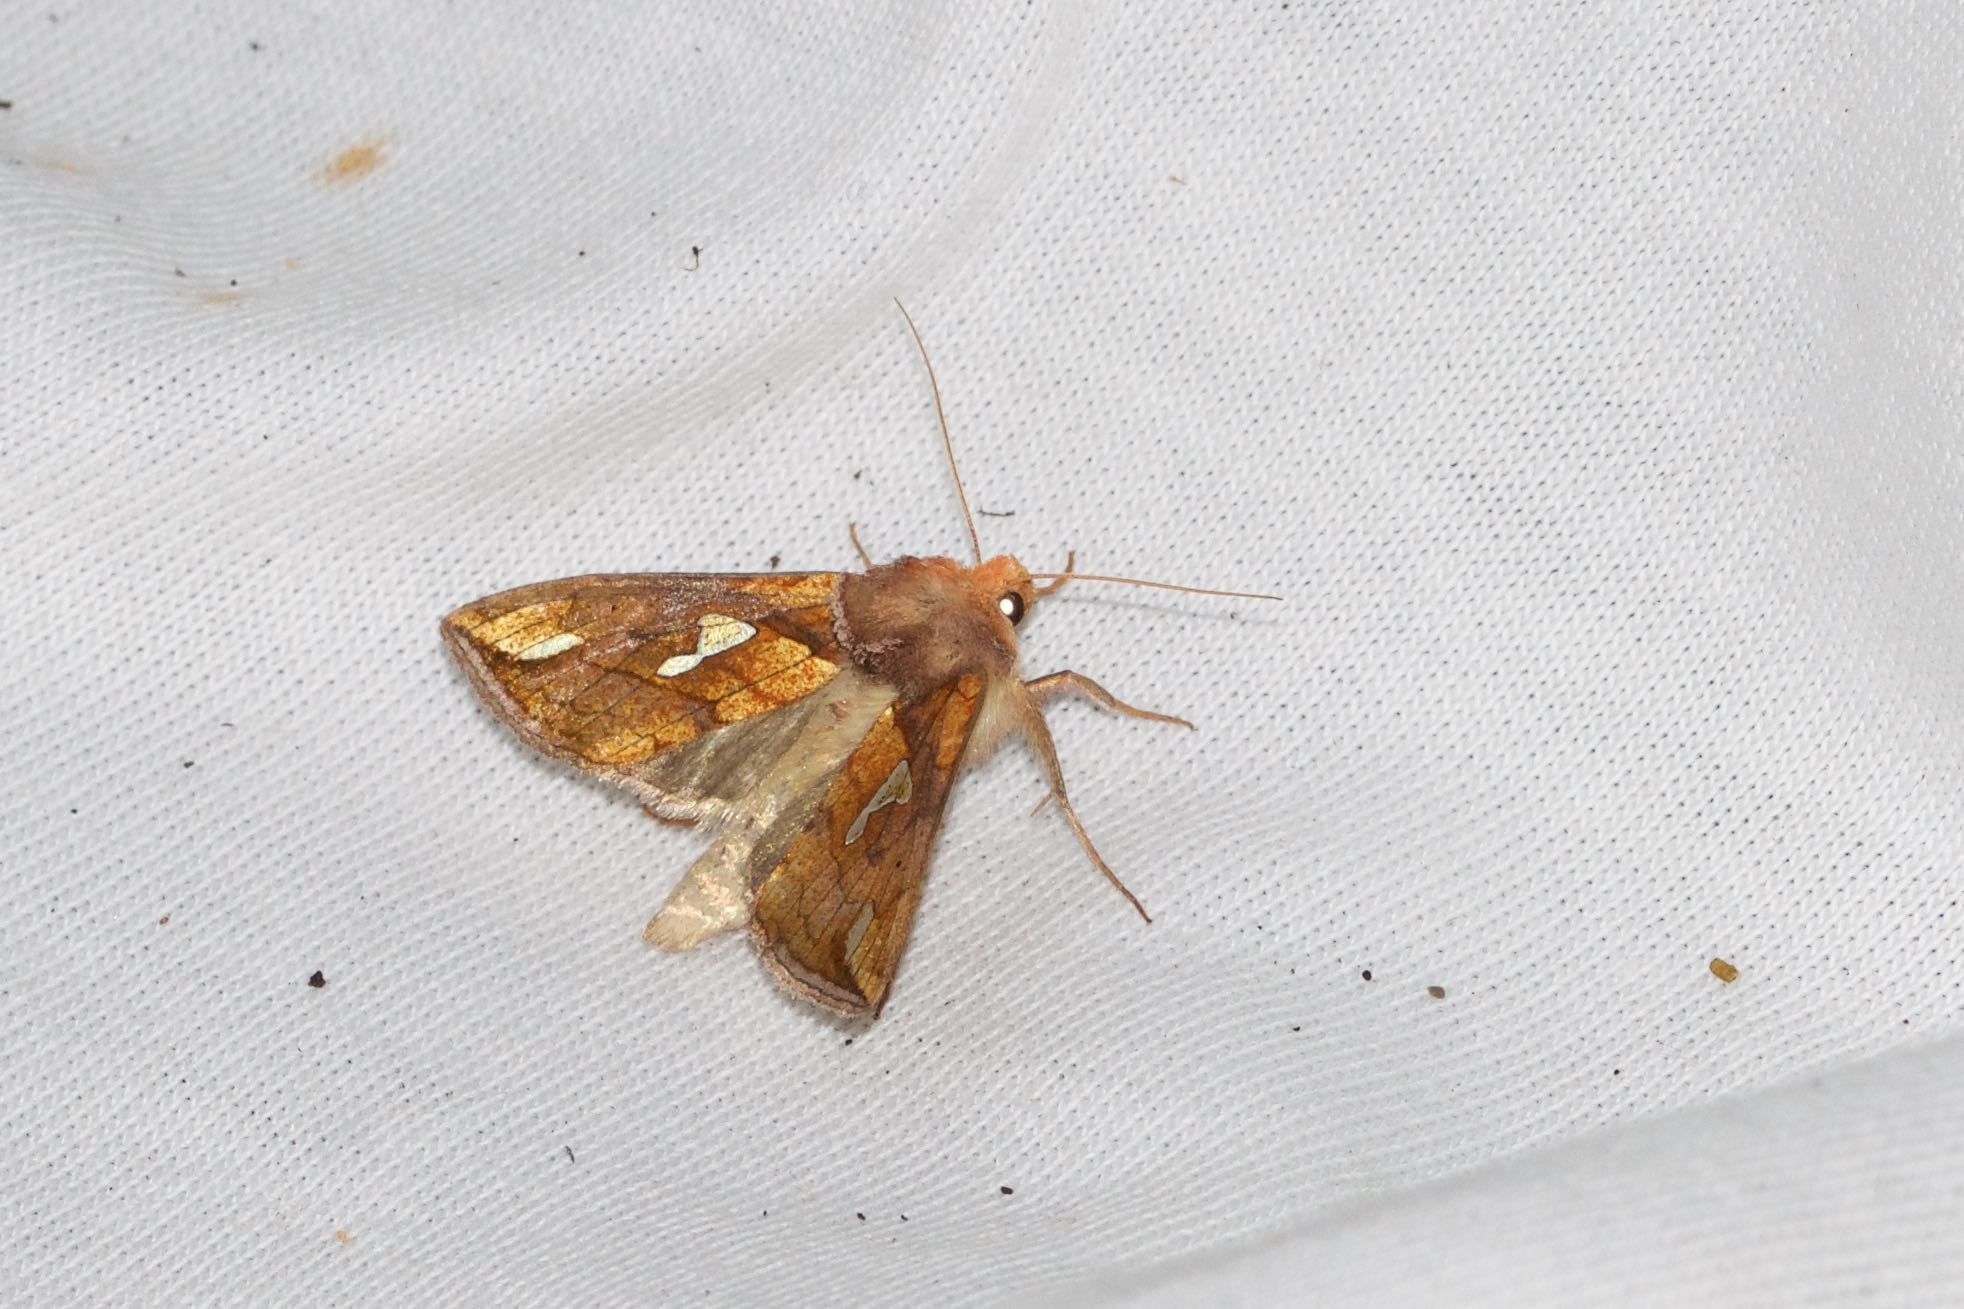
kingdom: Animalia
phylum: Arthropoda
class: Insecta
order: Lepidoptera
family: Noctuidae
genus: Plusia
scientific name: Plusia putnami
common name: Lempke's gold spot
